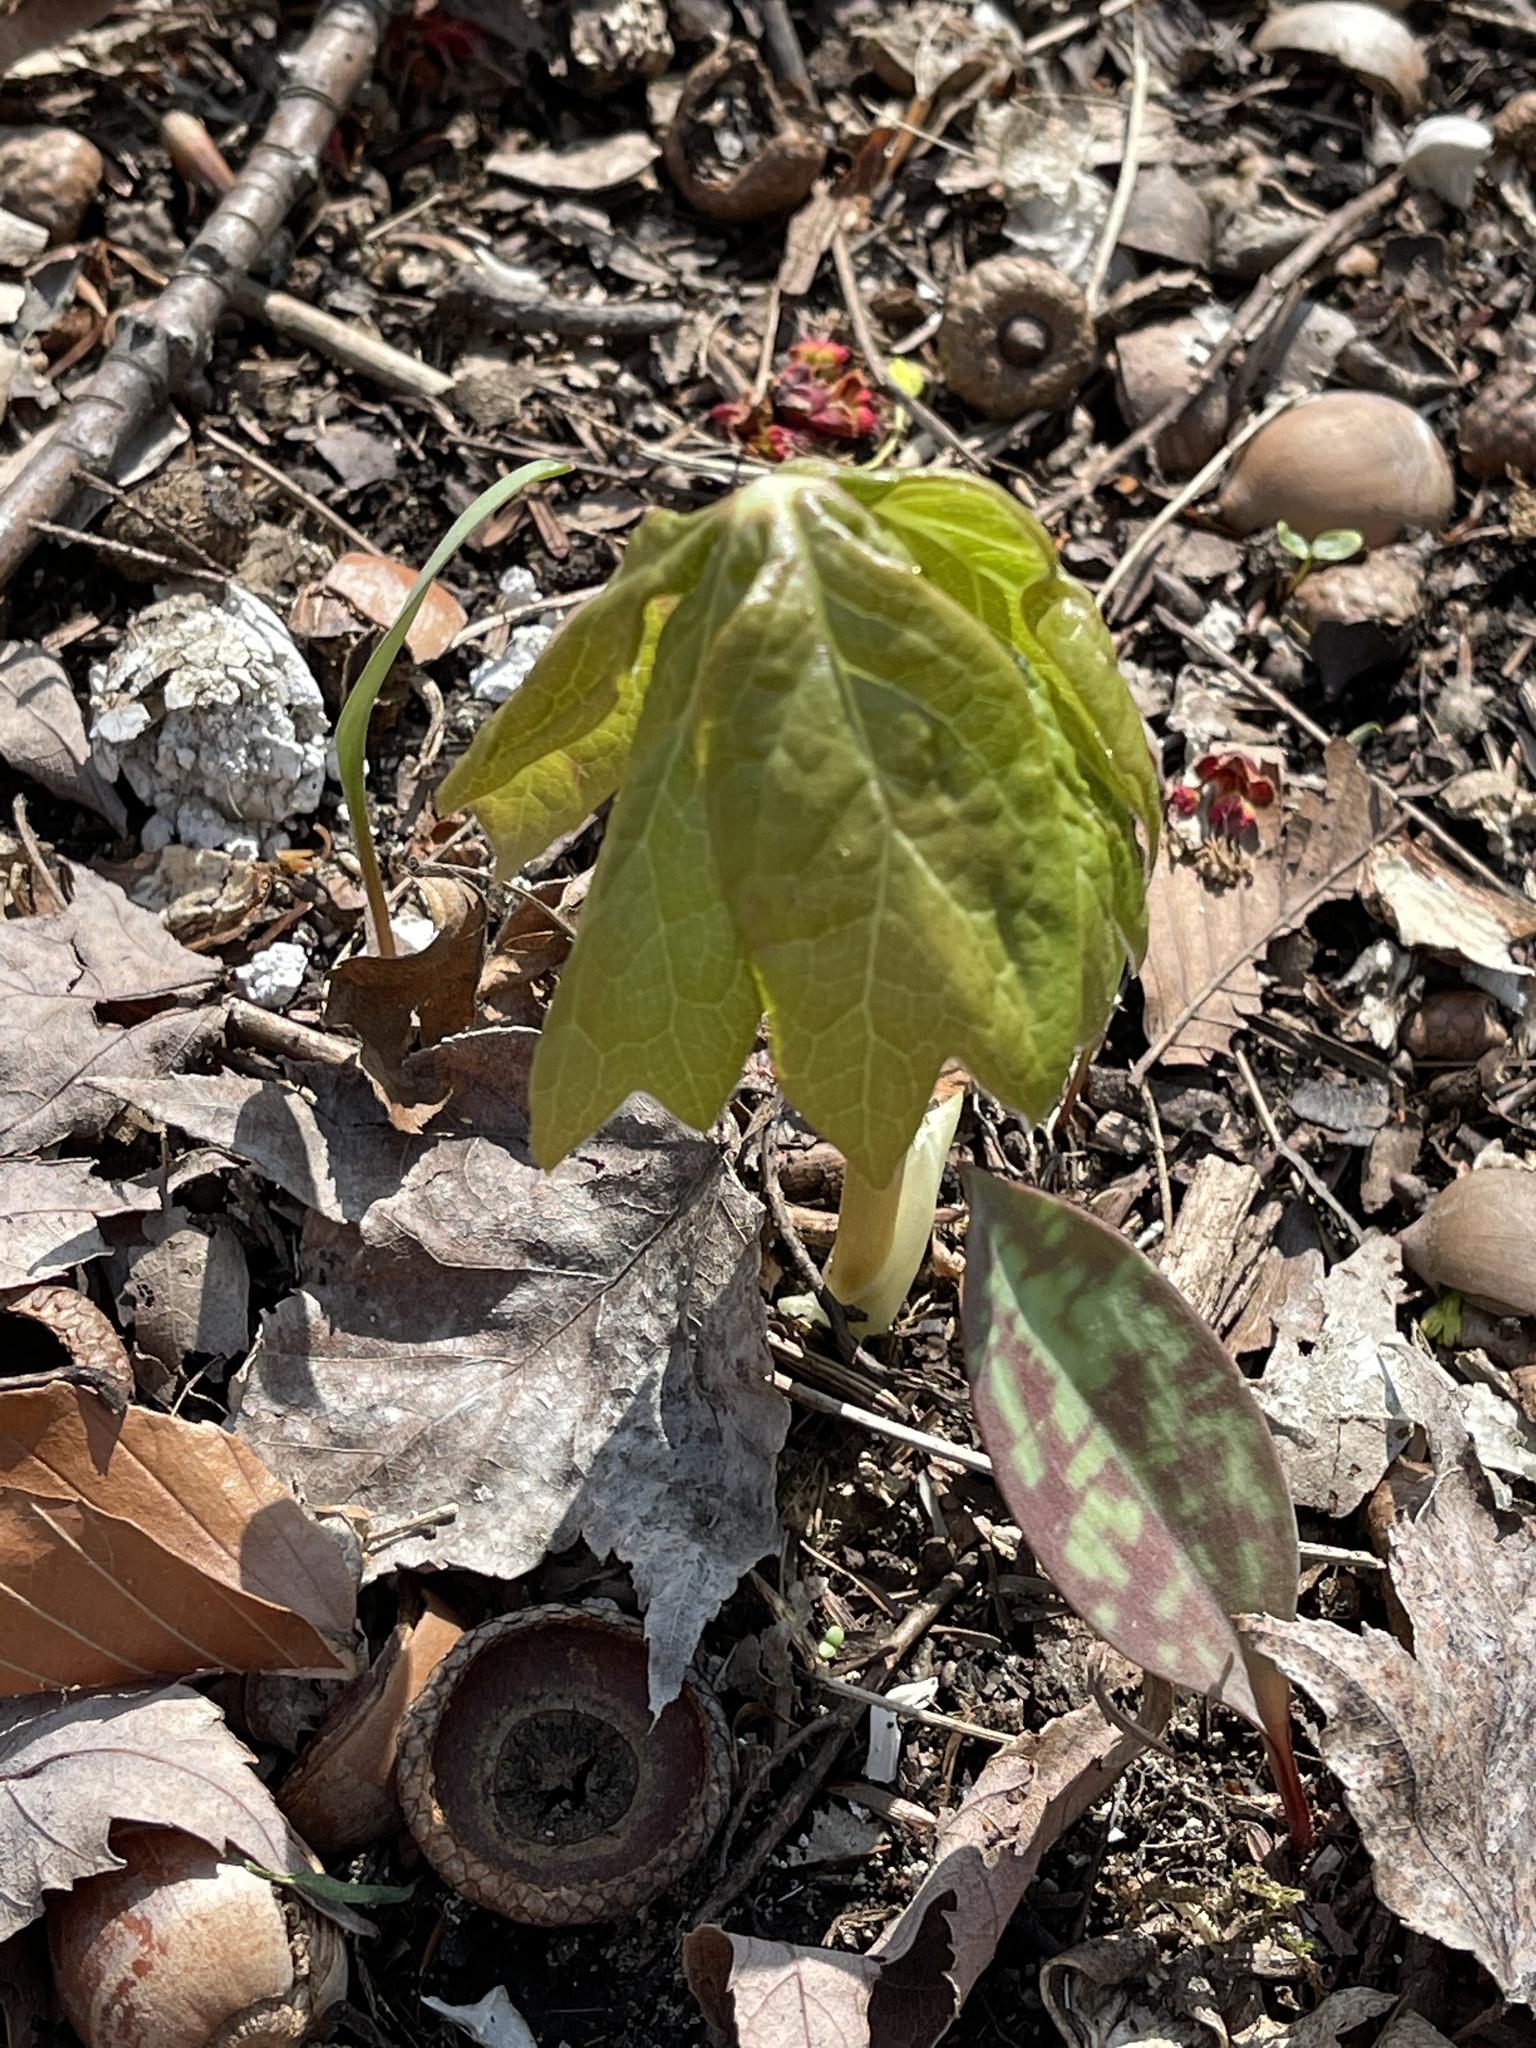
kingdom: Plantae
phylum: Tracheophyta
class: Magnoliopsida
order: Ranunculales
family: Berberidaceae
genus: Podophyllum
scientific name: Podophyllum peltatum
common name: Wild mandrake
